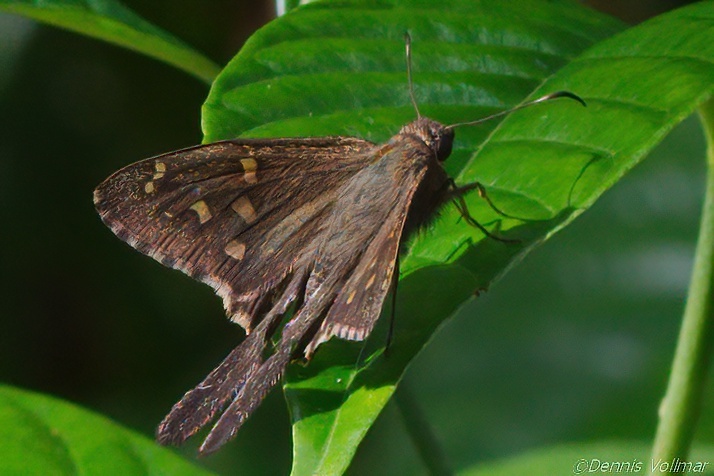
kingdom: Animalia
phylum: Arthropoda
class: Insecta
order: Lepidoptera
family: Hesperiidae
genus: Thorybes
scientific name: Thorybes
